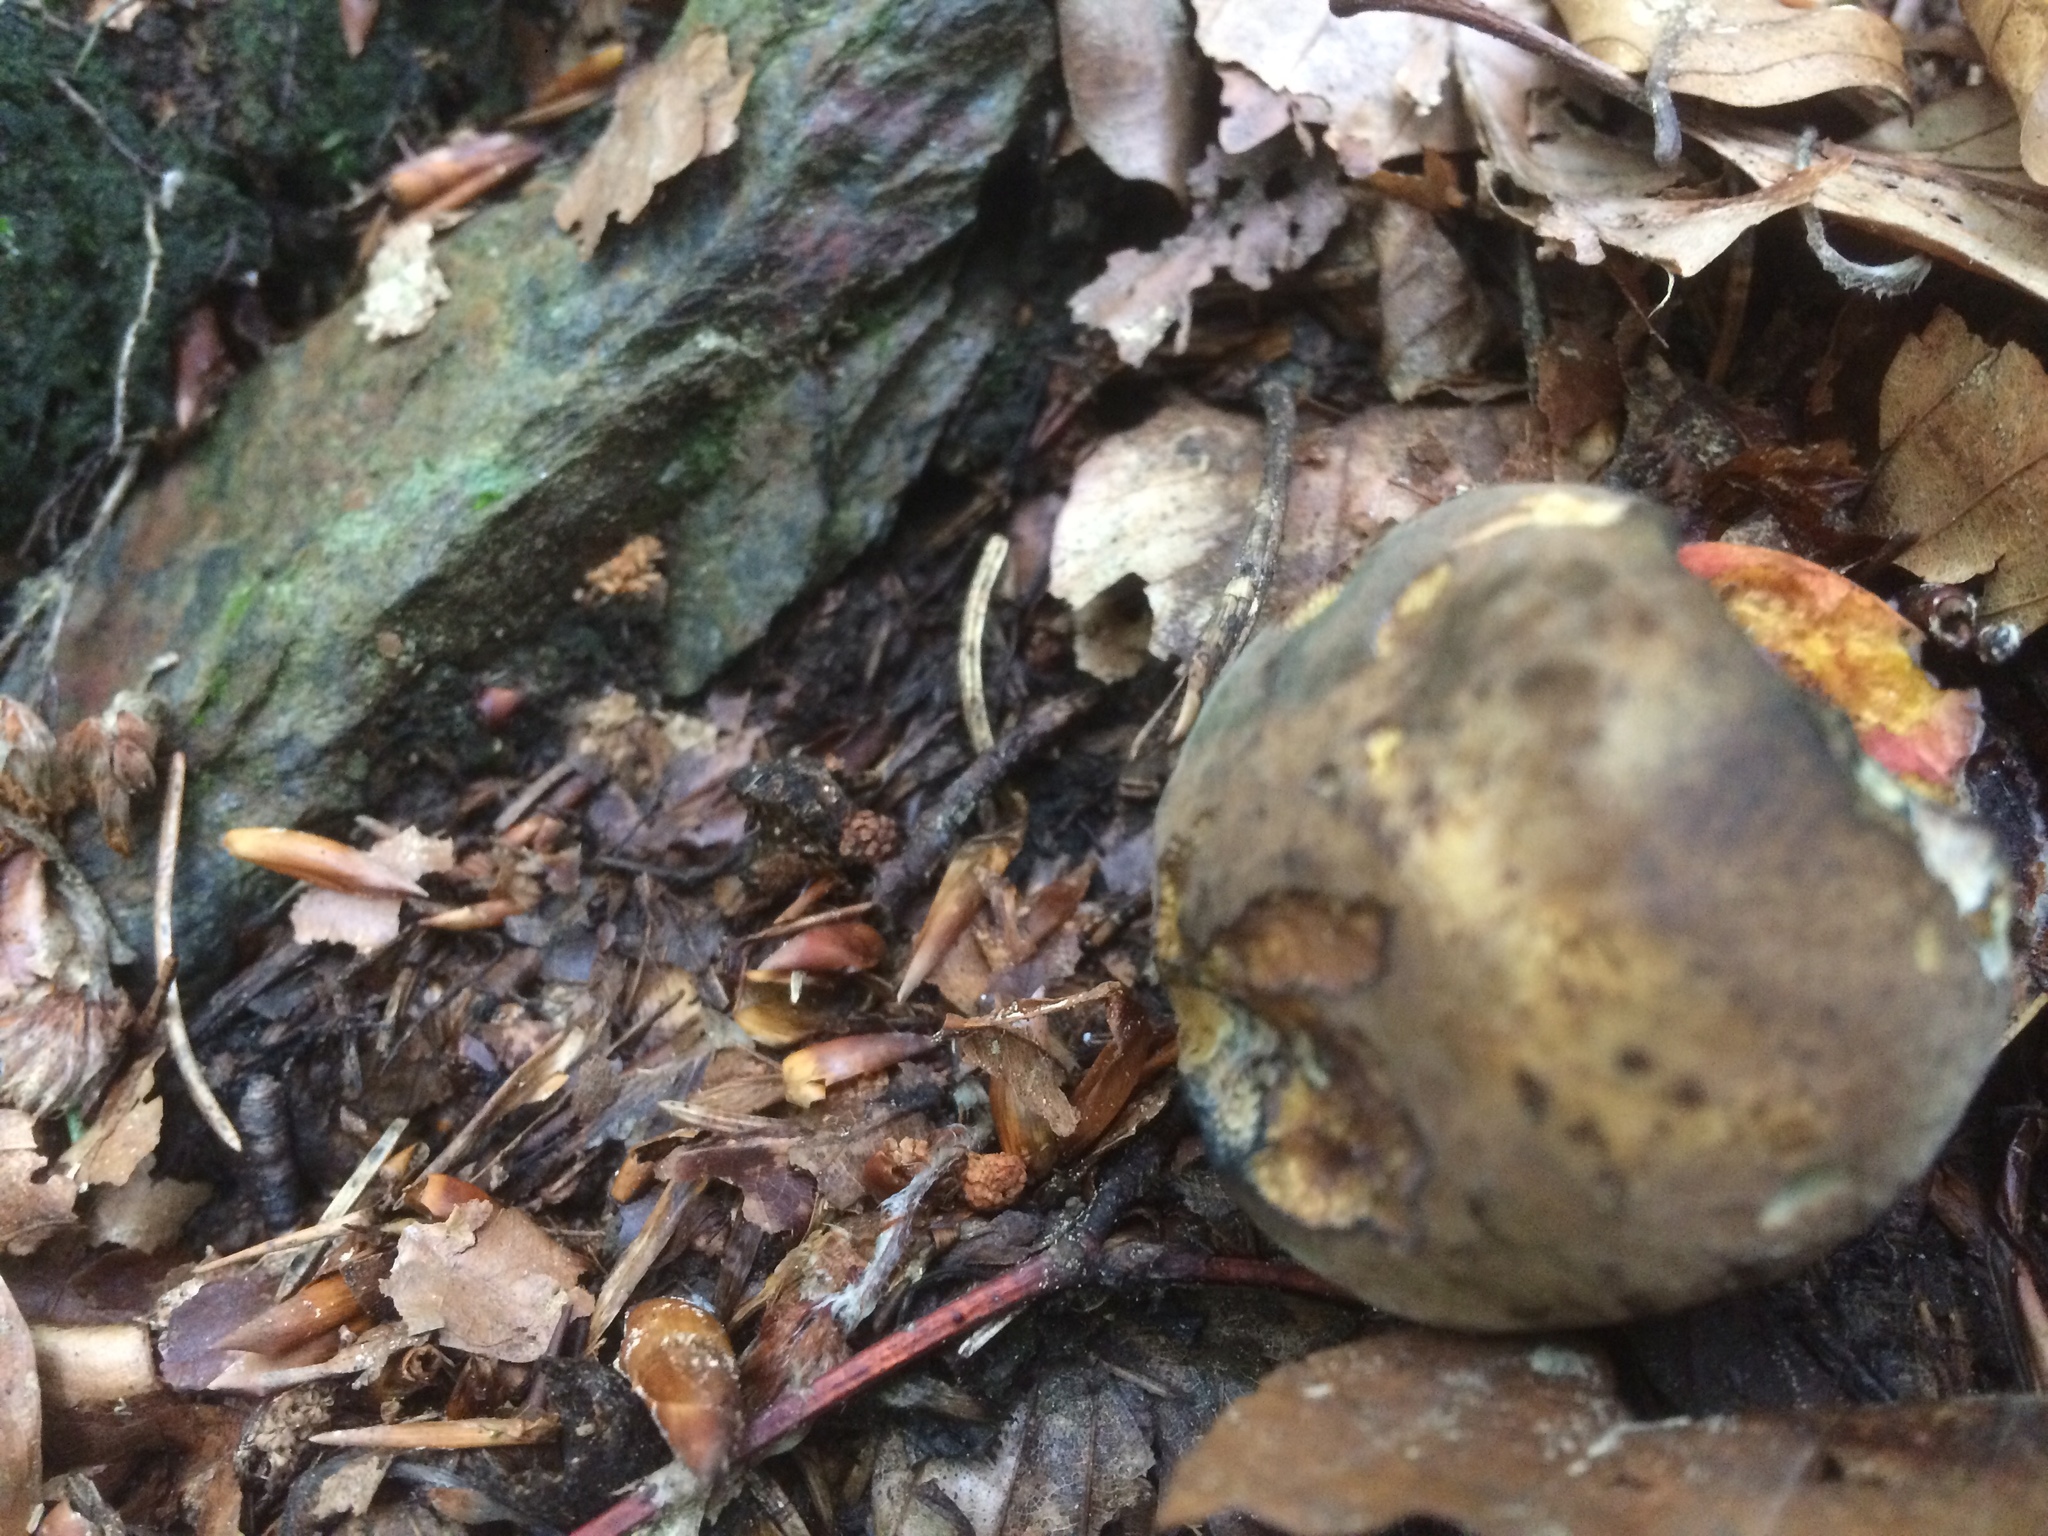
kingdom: Fungi
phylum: Basidiomycota
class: Agaricomycetes
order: Boletales
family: Boletaceae
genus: Neoboletus
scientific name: Neoboletus erythropus
